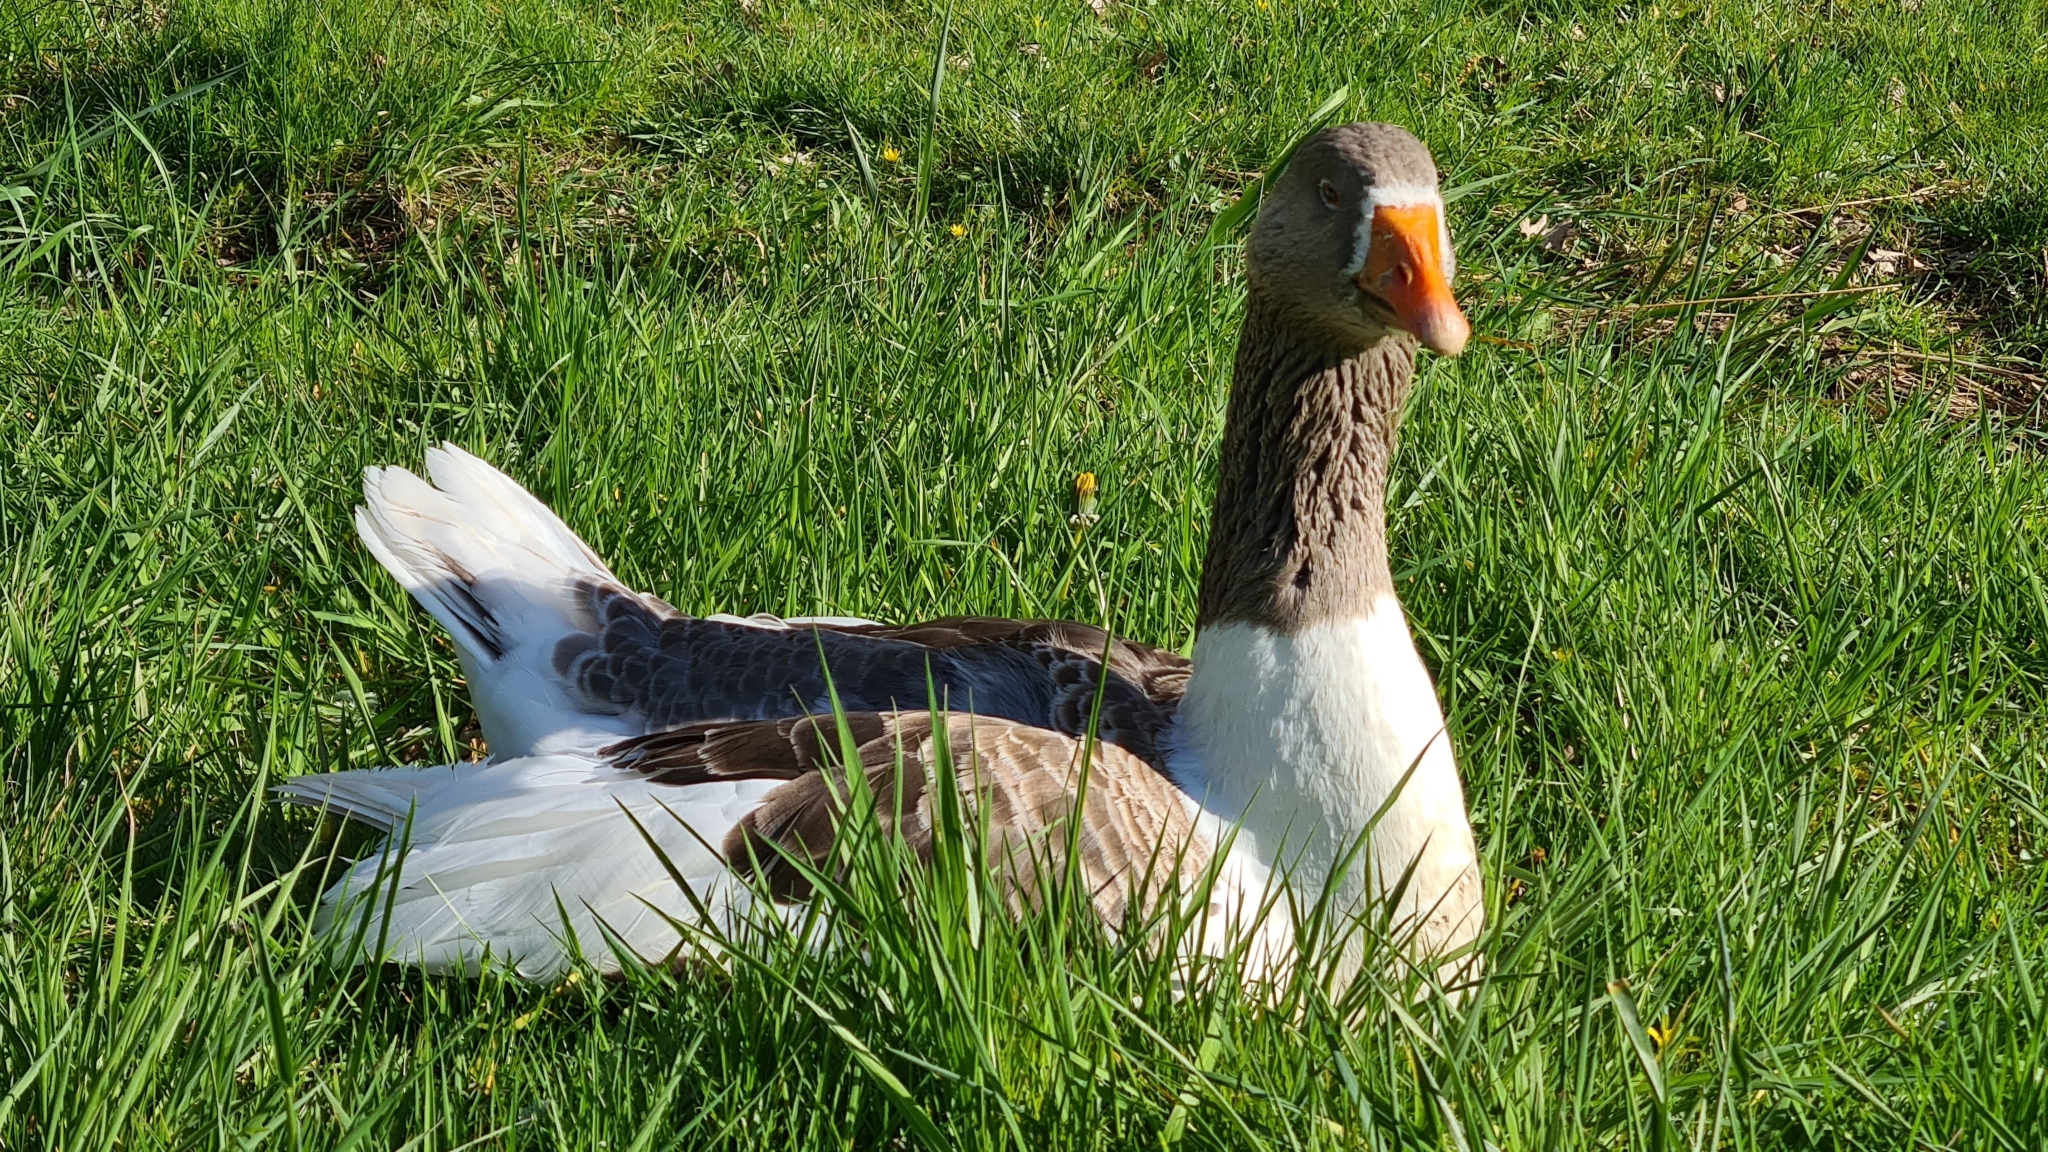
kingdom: Animalia
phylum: Chordata
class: Aves
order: Anseriformes
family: Anatidae
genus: Anser
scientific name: Anser anser
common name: Greylag goose
